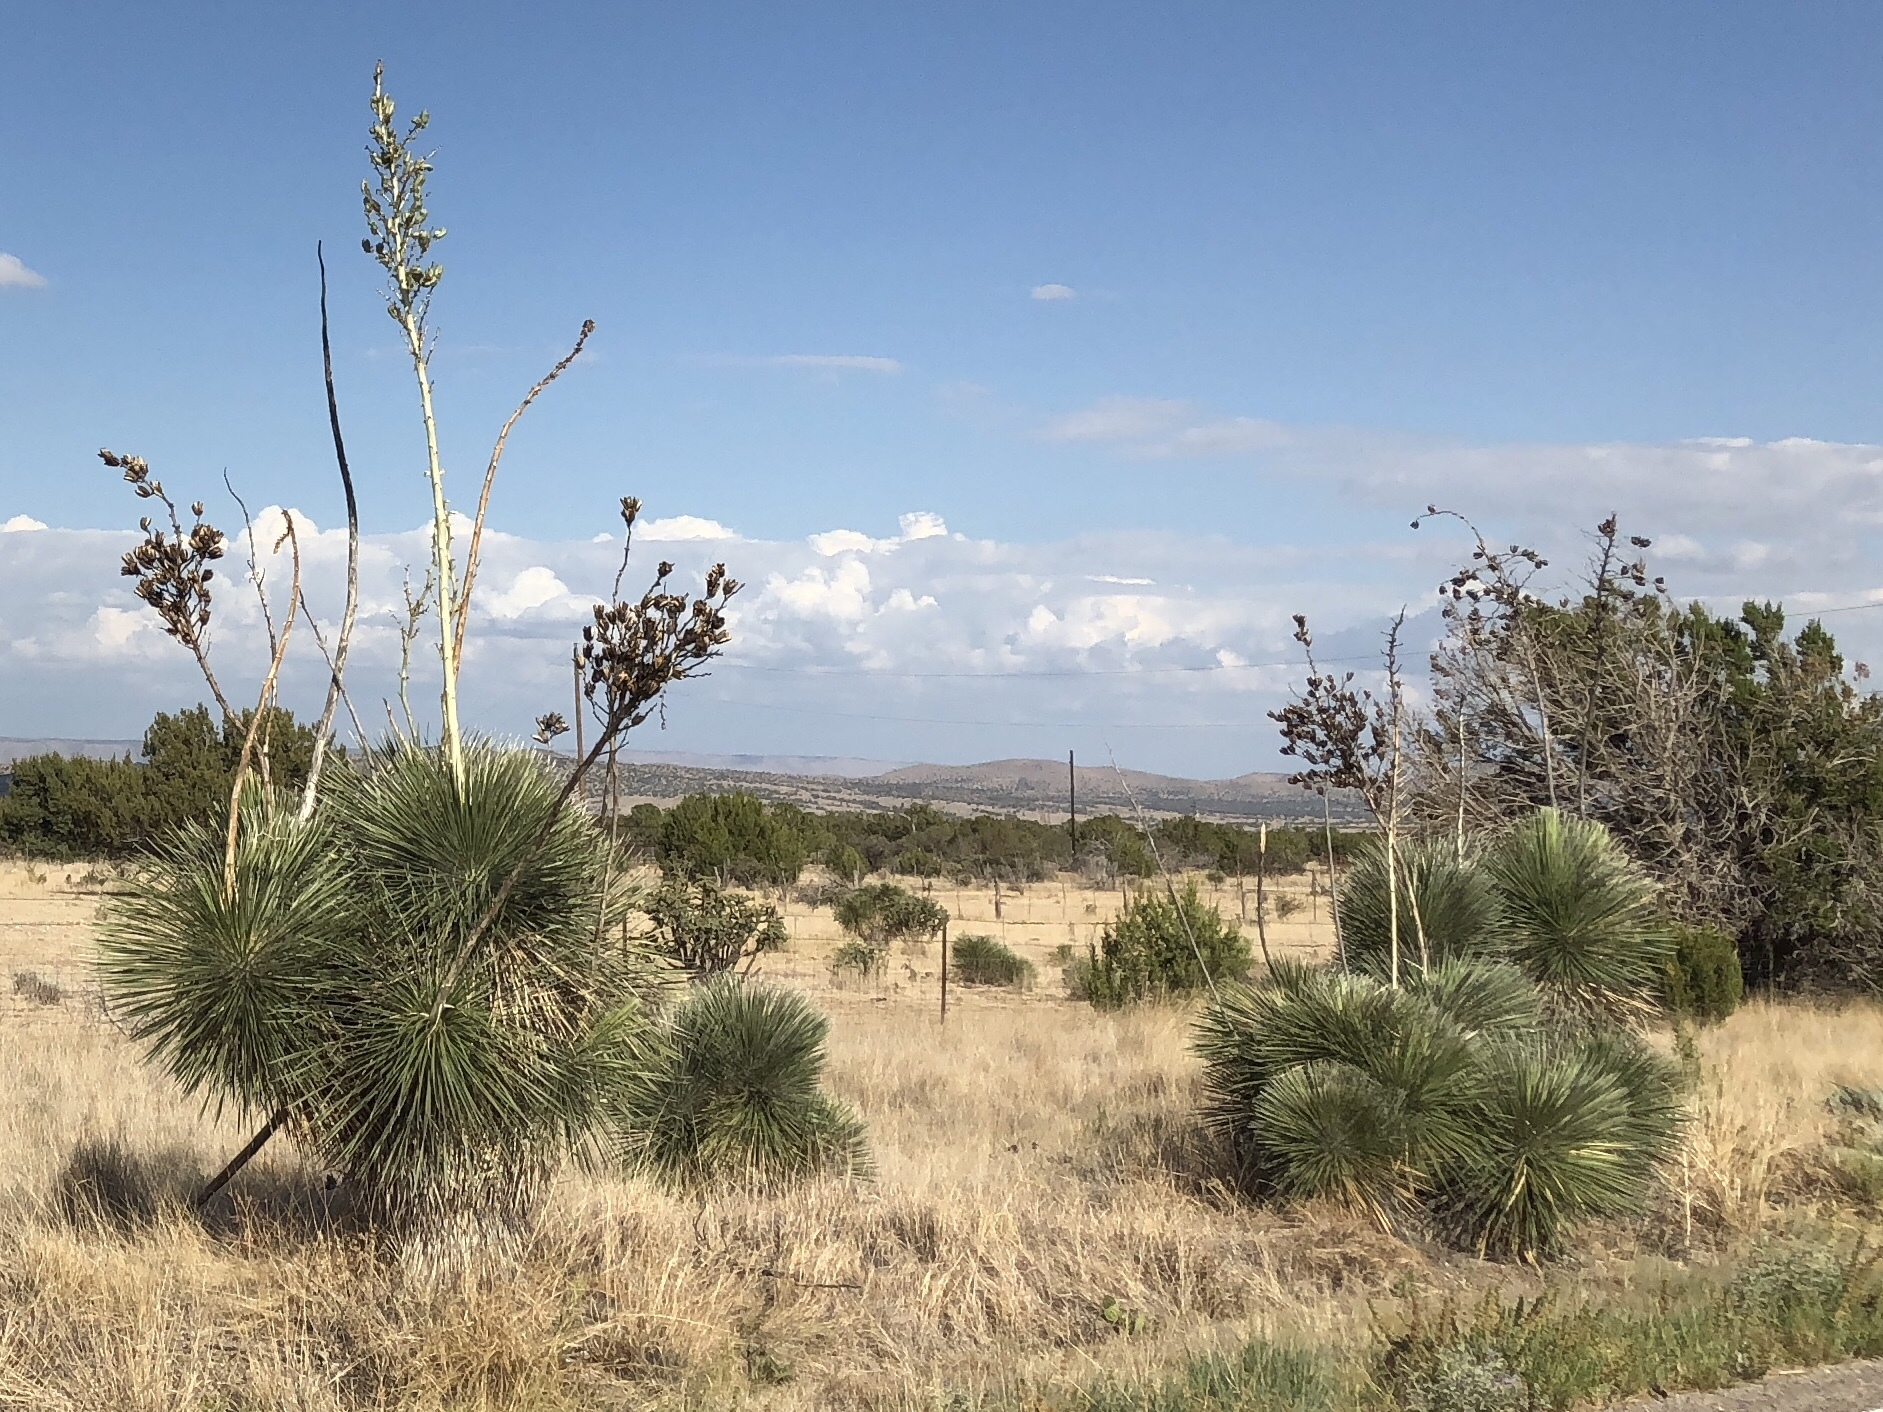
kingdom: Plantae
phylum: Tracheophyta
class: Liliopsida
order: Asparagales
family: Asparagaceae
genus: Yucca
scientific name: Yucca elata
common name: Palmella
